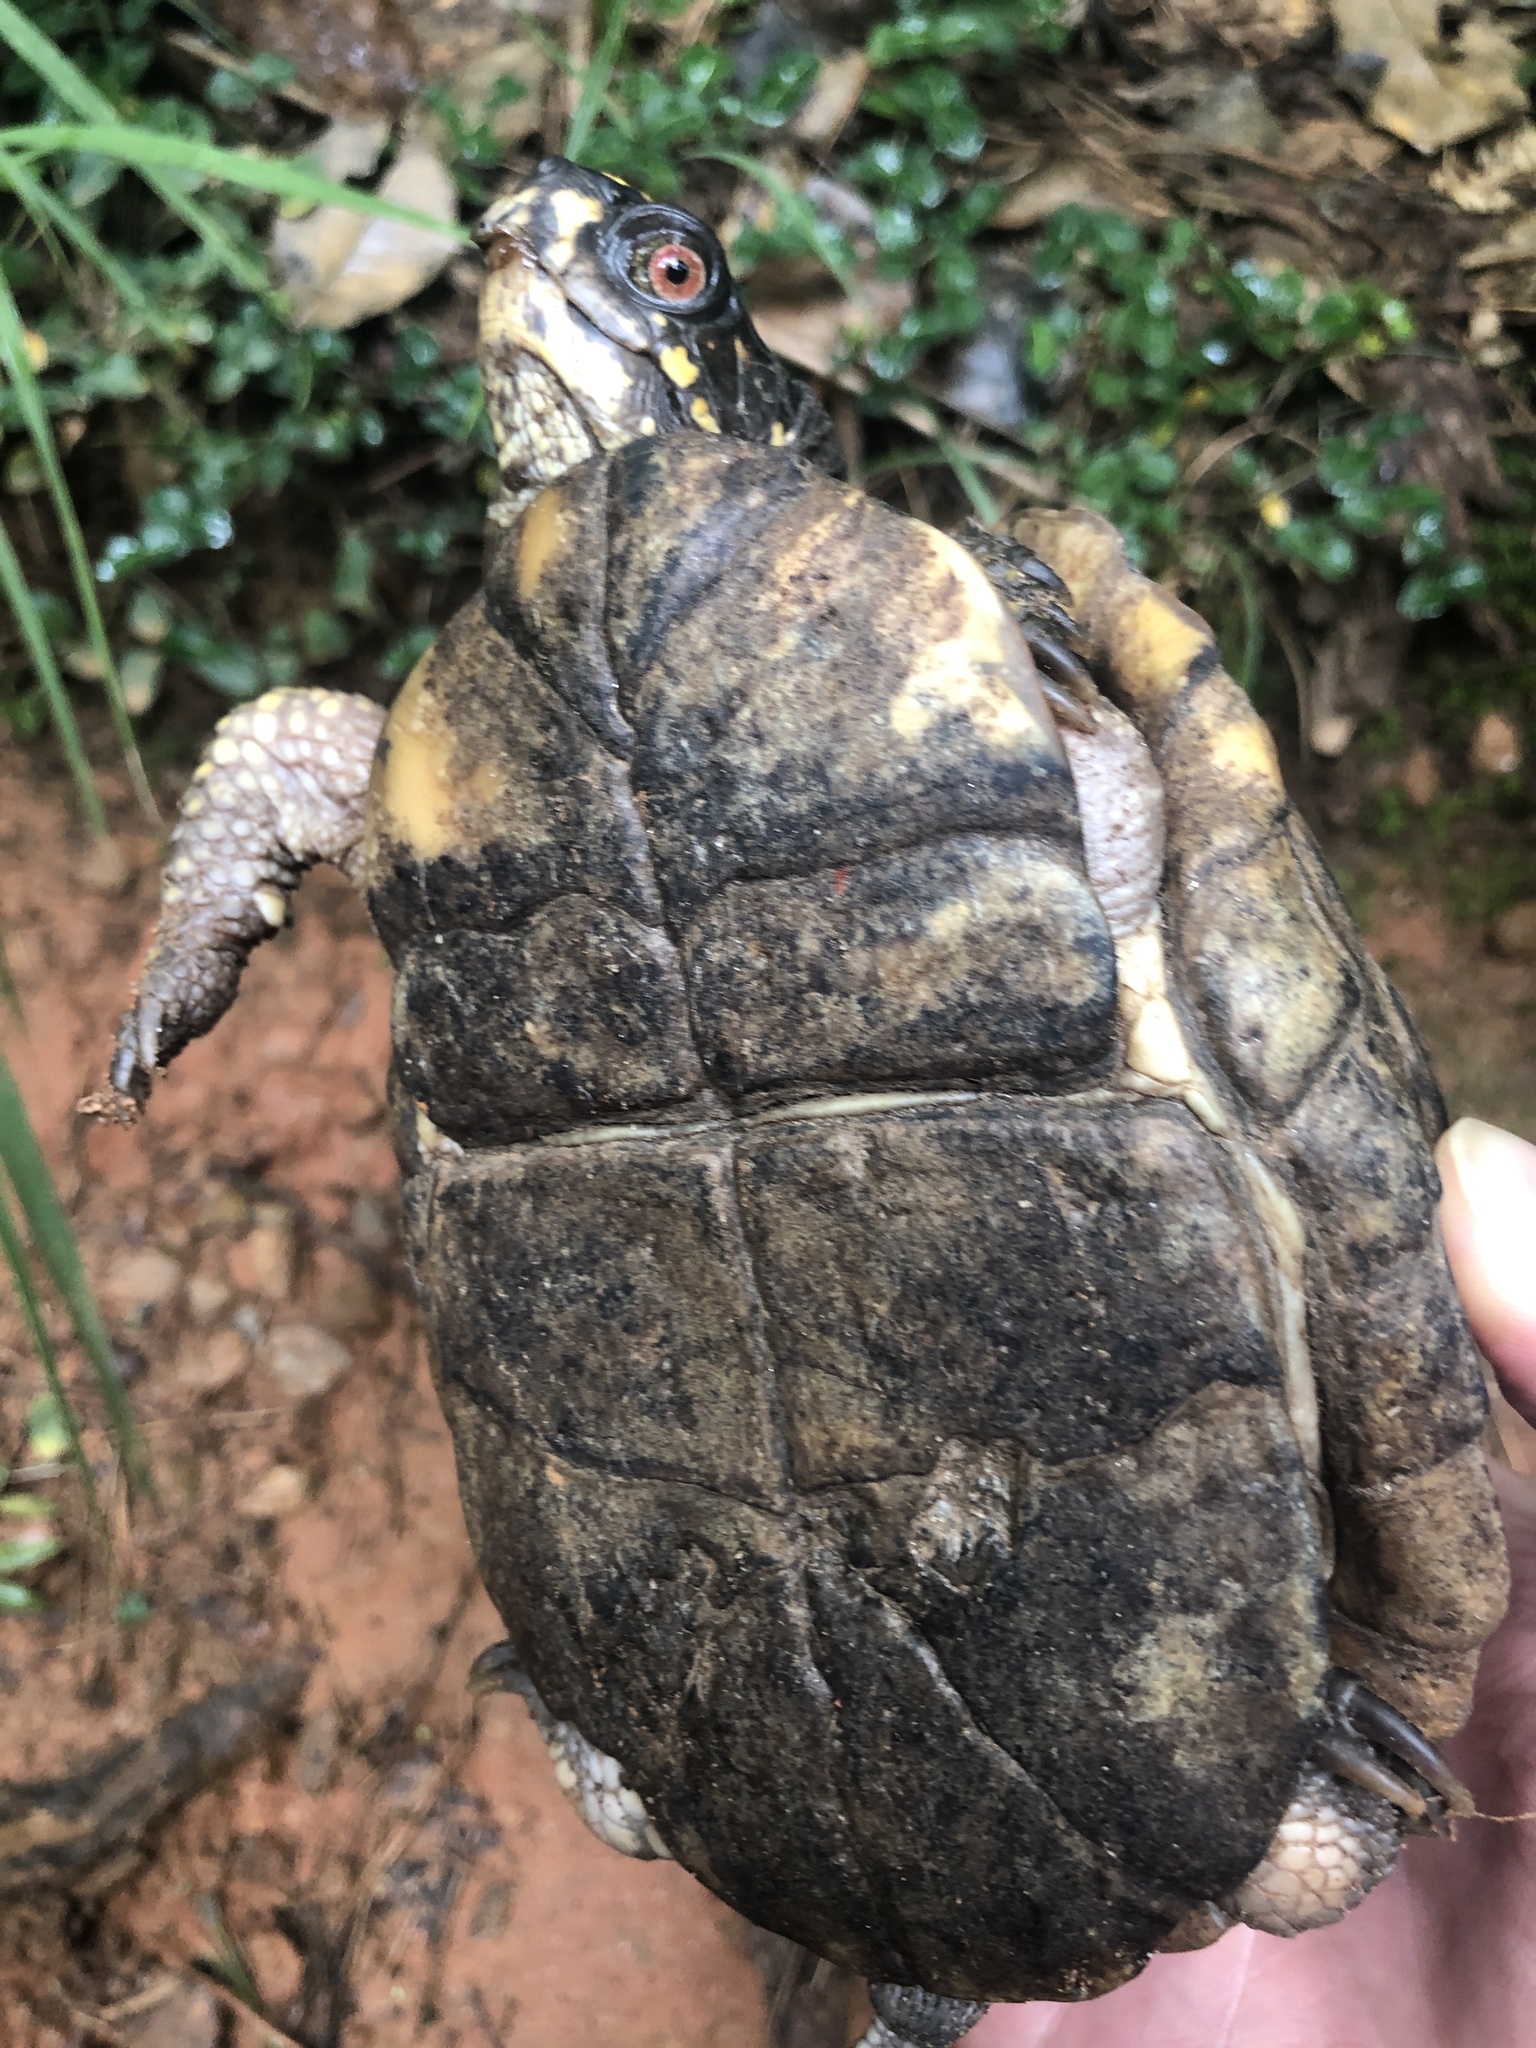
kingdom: Animalia
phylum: Chordata
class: Testudines
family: Emydidae
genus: Terrapene
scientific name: Terrapene carolina
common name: Common box turtle
